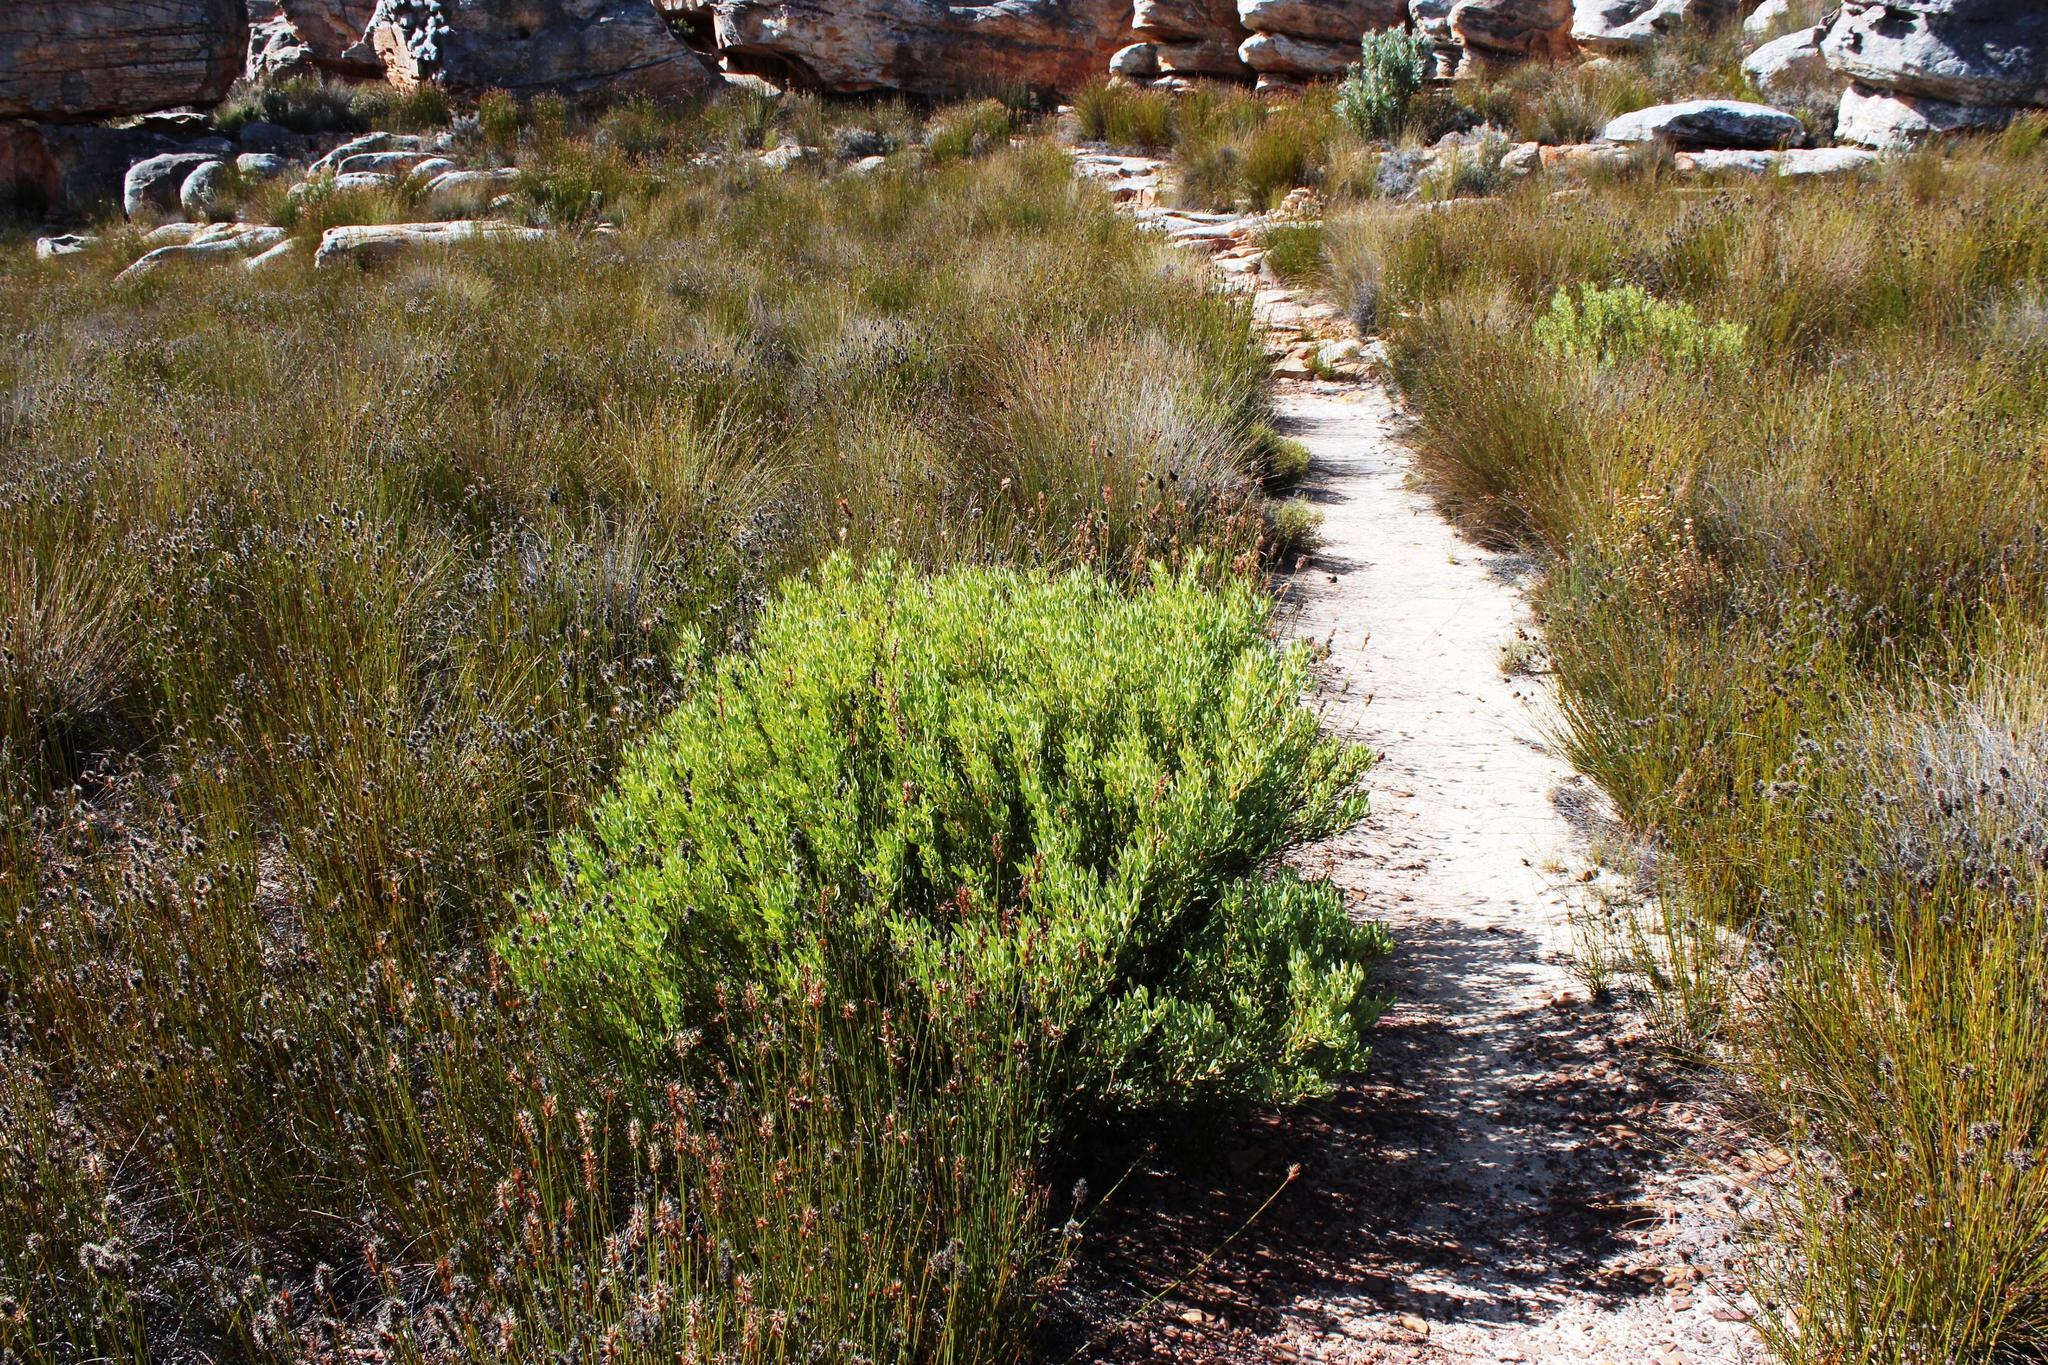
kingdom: Plantae
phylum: Tracheophyta
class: Magnoliopsida
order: Proteales
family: Proteaceae
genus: Leucadendron
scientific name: Leucadendron glaberrimum
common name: Common oily conebush
